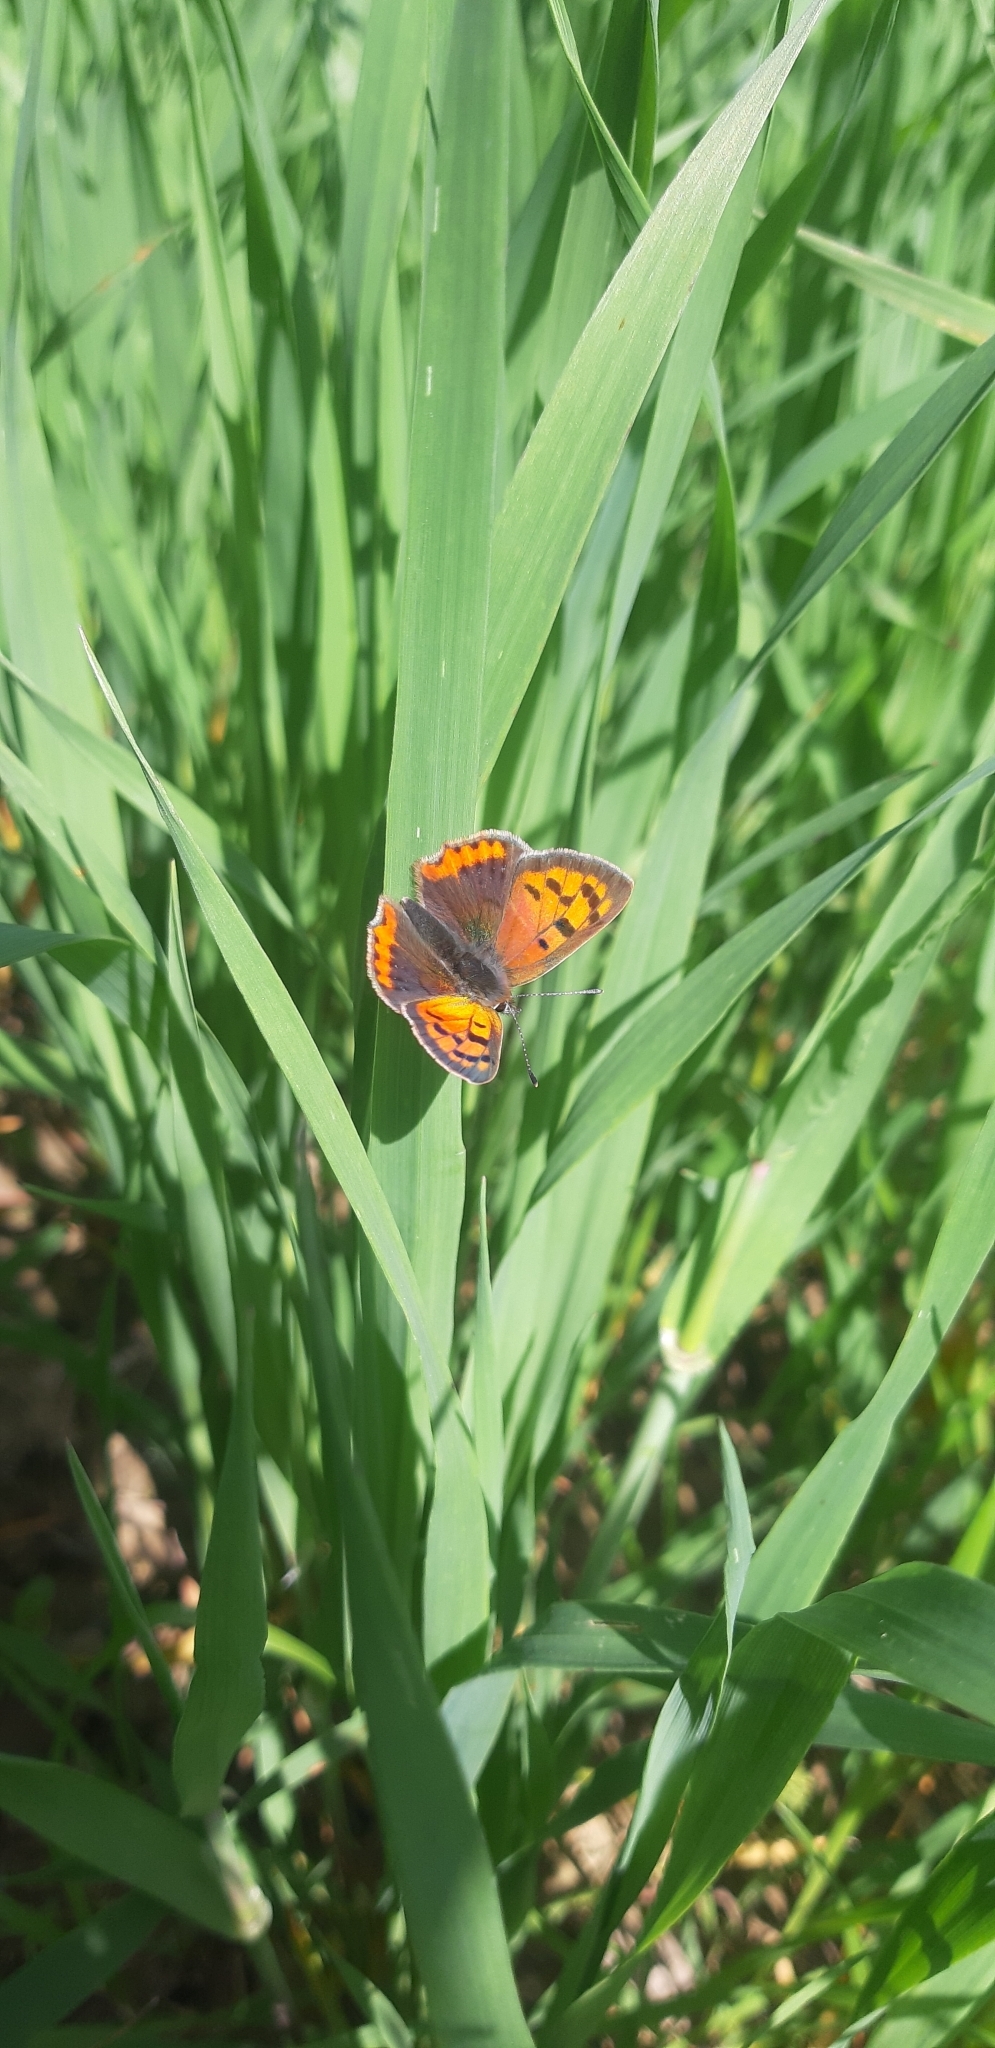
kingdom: Animalia
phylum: Arthropoda
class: Insecta
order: Lepidoptera
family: Lycaenidae
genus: Lycaena
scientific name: Lycaena phlaeas
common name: Small copper
